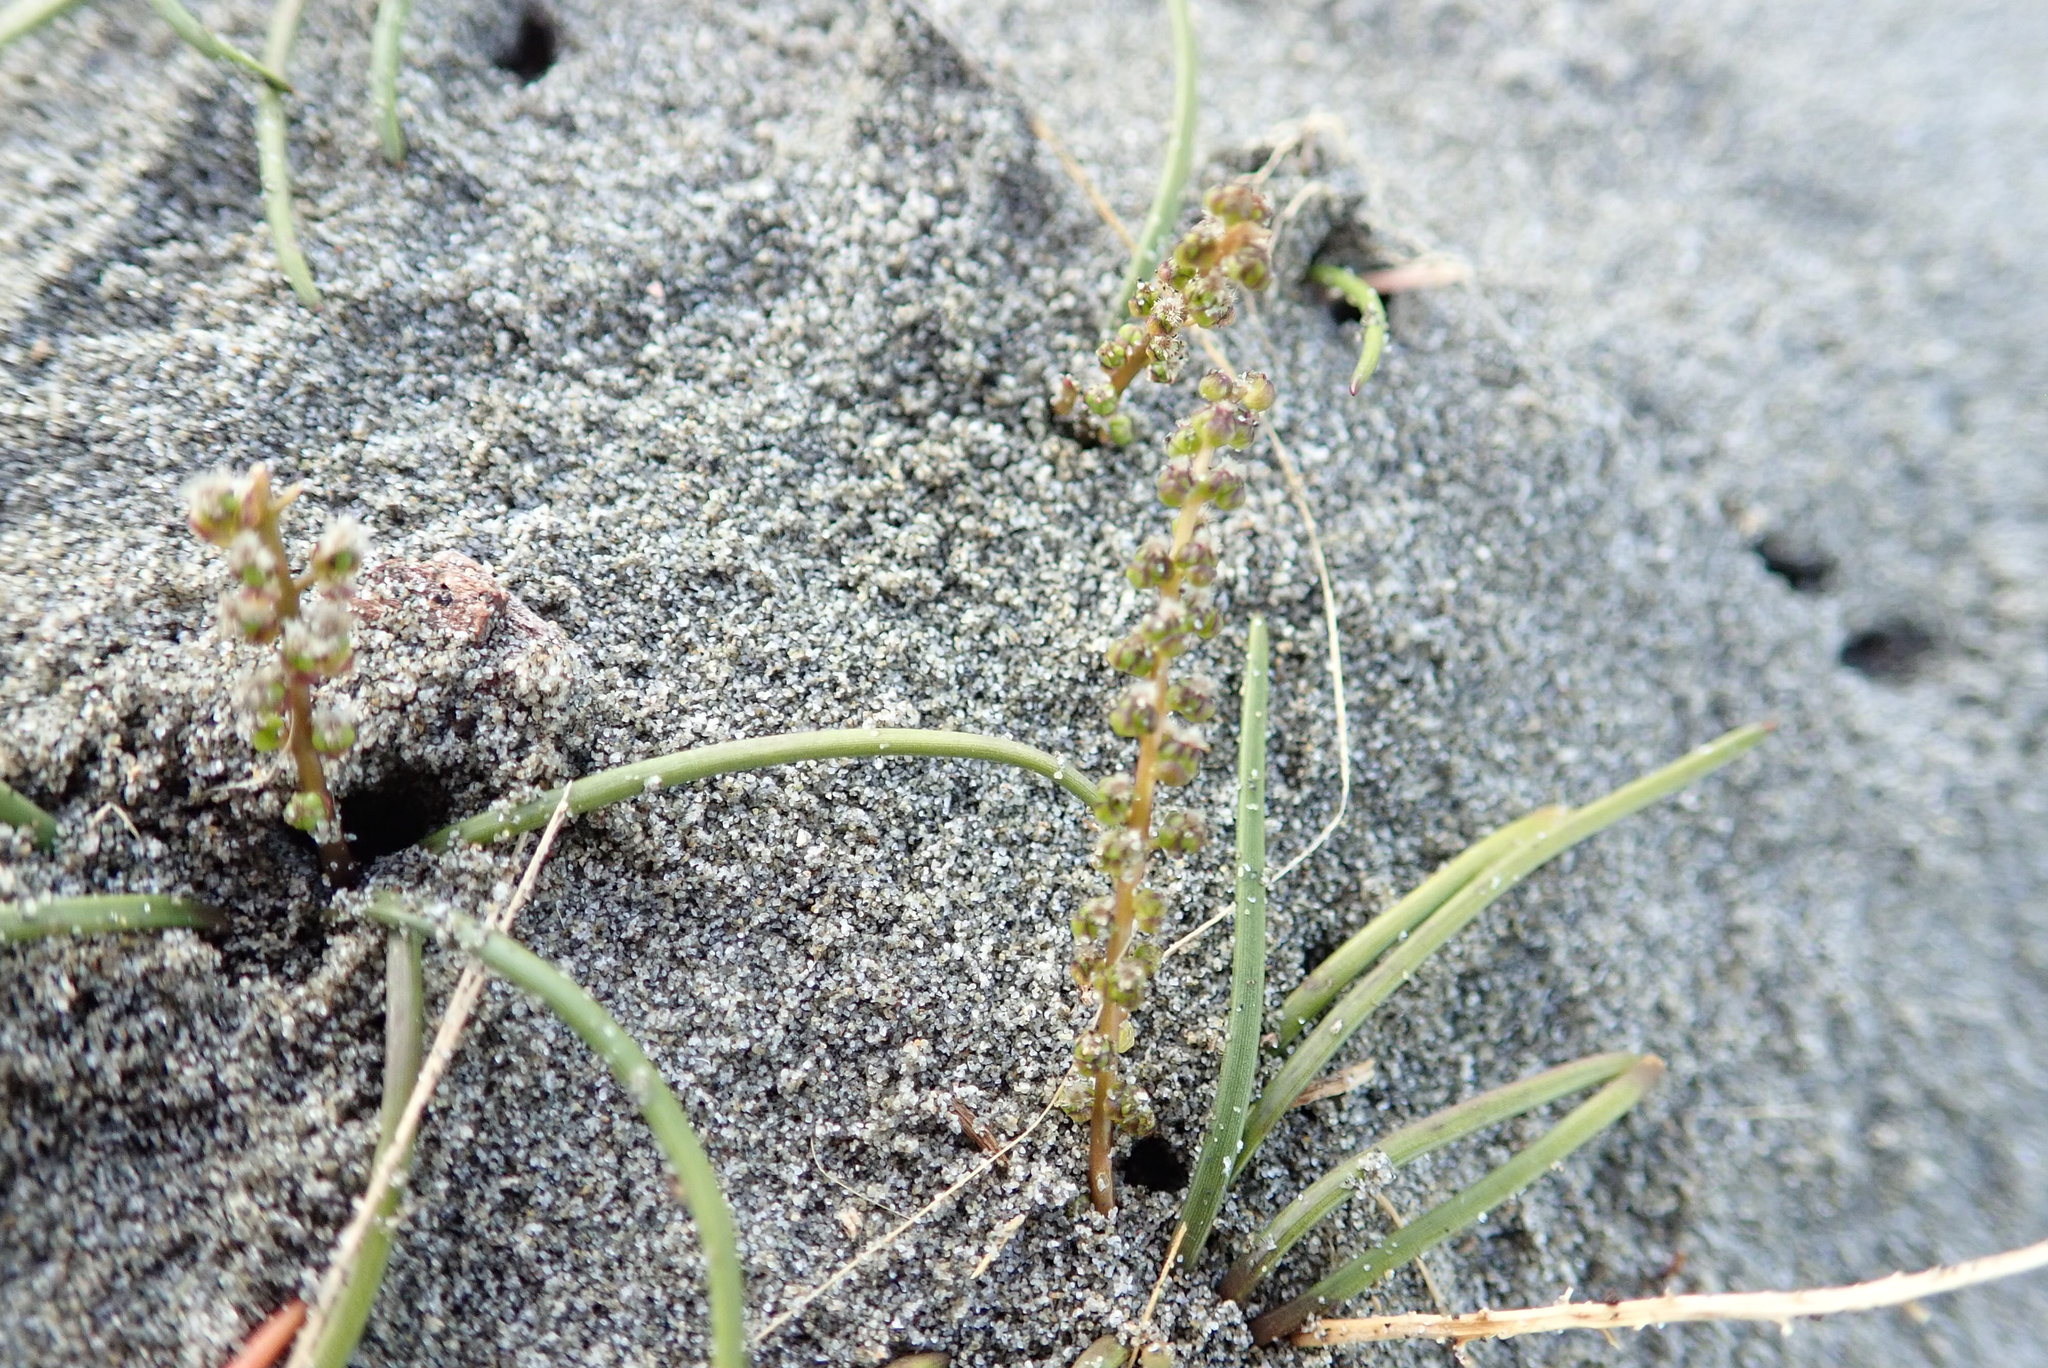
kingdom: Plantae
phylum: Tracheophyta
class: Liliopsida
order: Alismatales
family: Juncaginaceae
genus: Triglochin
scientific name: Triglochin striata
